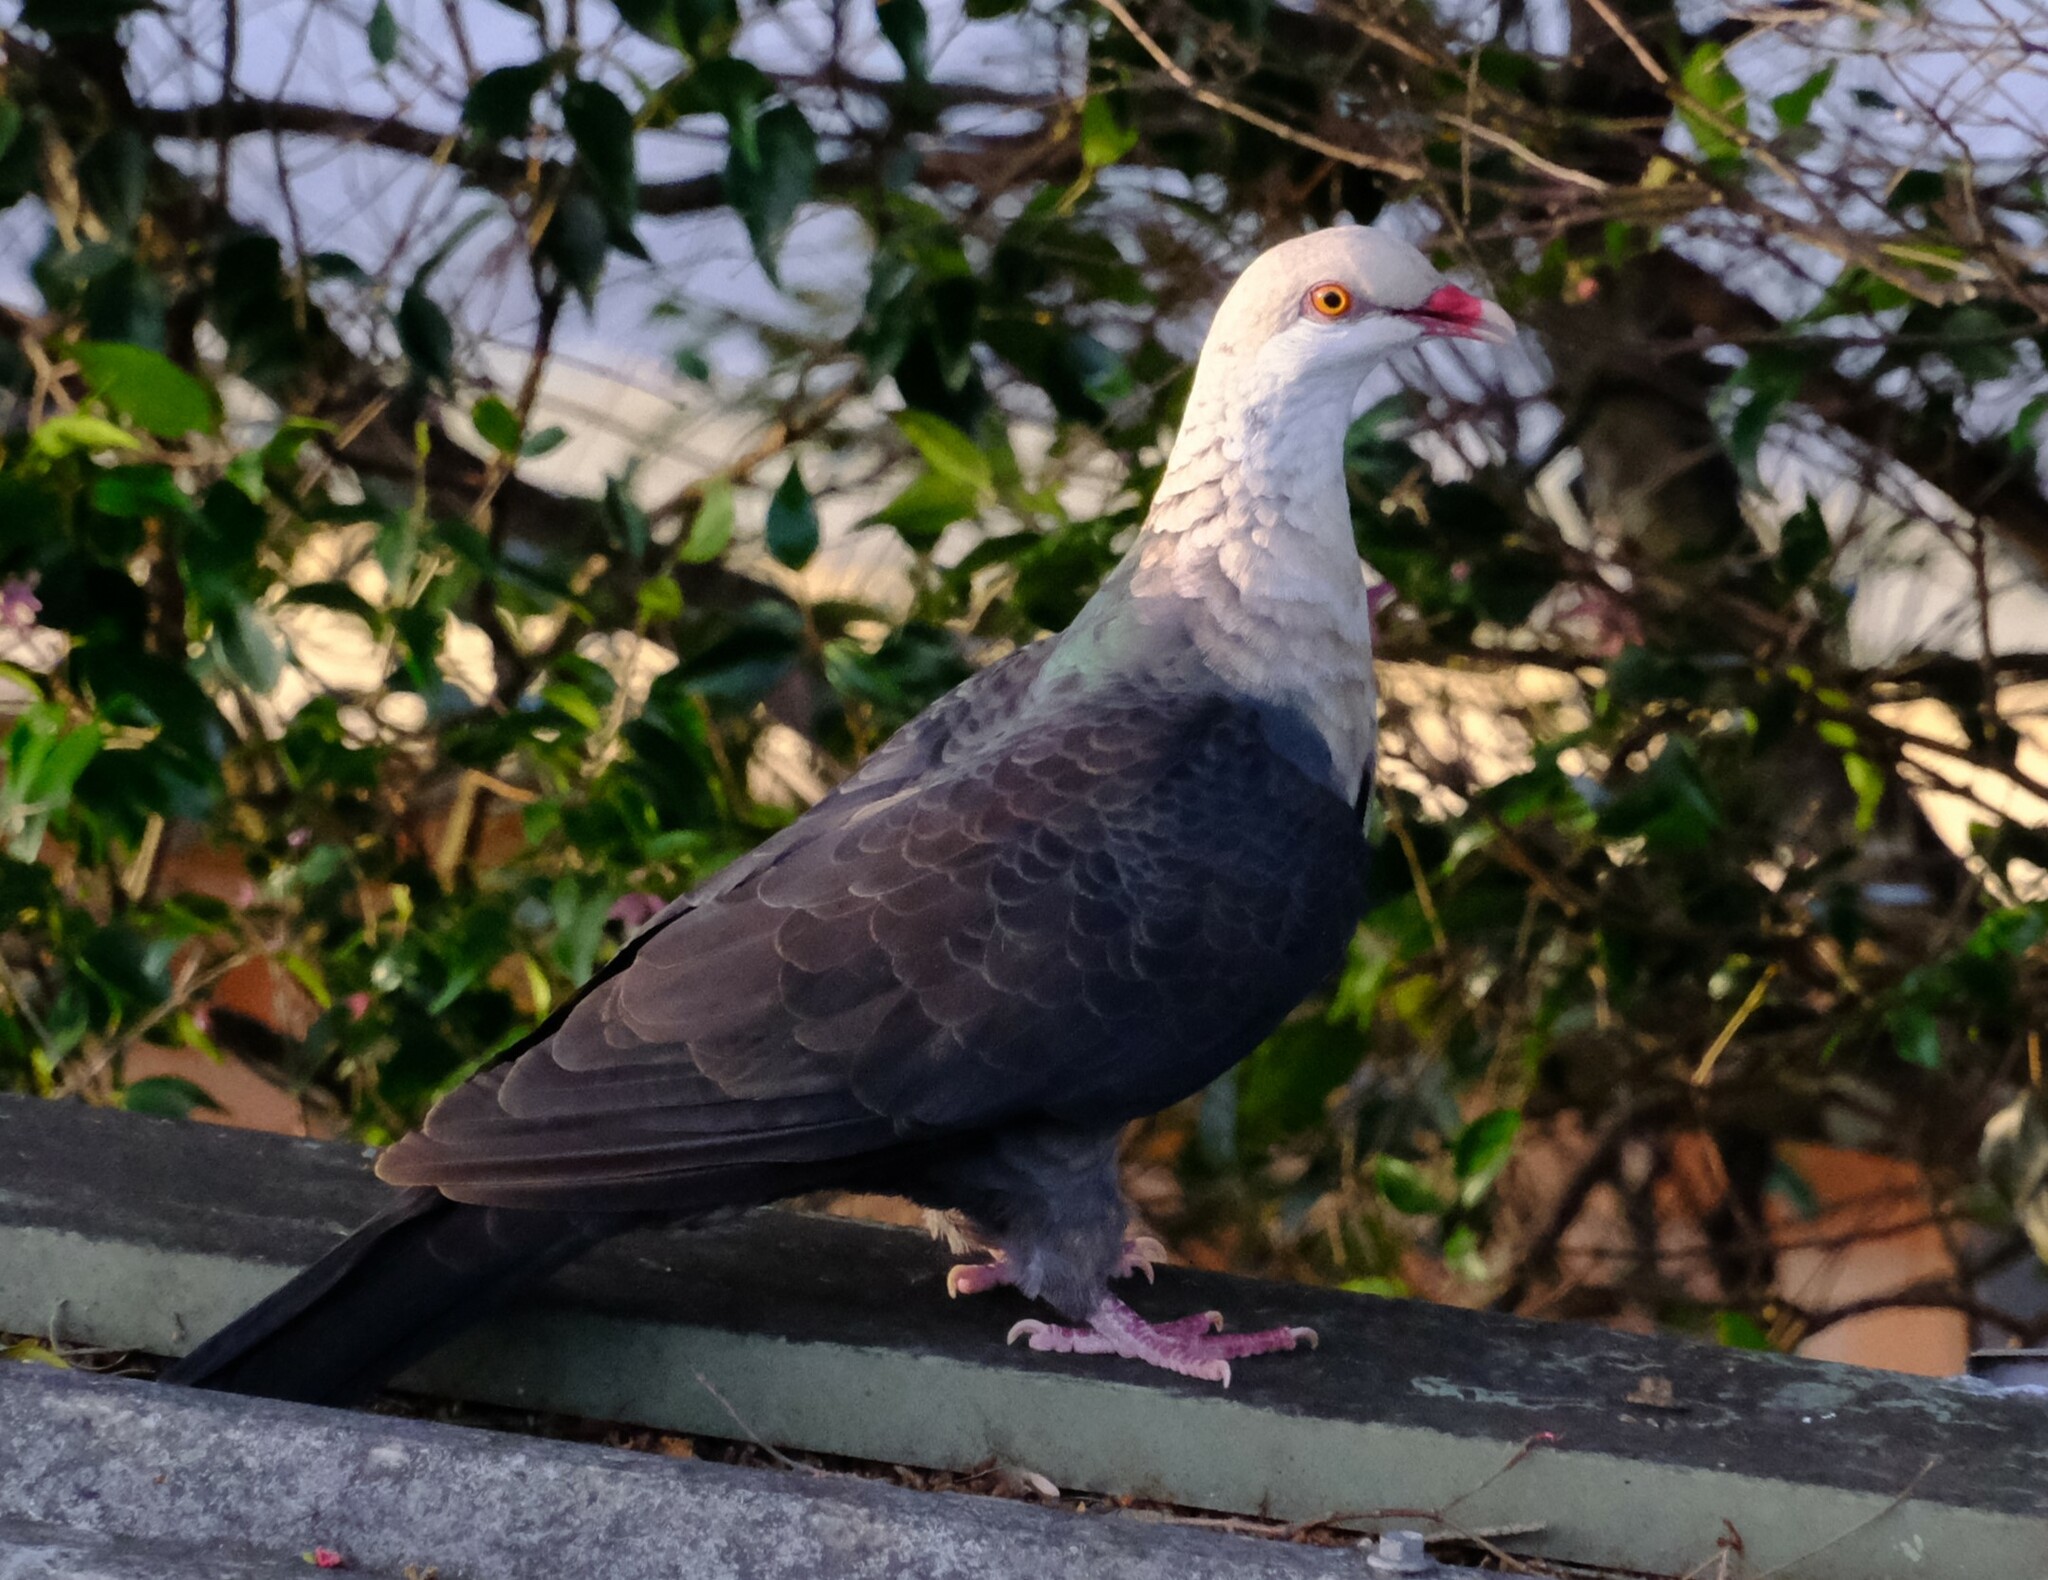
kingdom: Animalia
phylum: Chordata
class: Aves
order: Columbiformes
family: Columbidae
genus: Columba
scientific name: Columba leucomela
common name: White-headed pigeon
